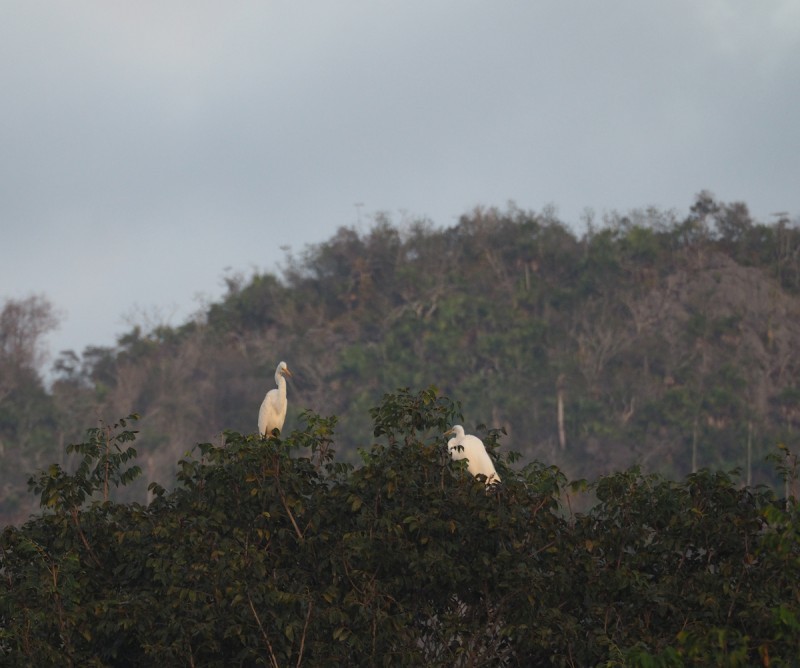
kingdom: Animalia
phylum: Chordata
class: Aves
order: Pelecaniformes
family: Ardeidae
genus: Ardea
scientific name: Ardea alba
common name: Great egret
